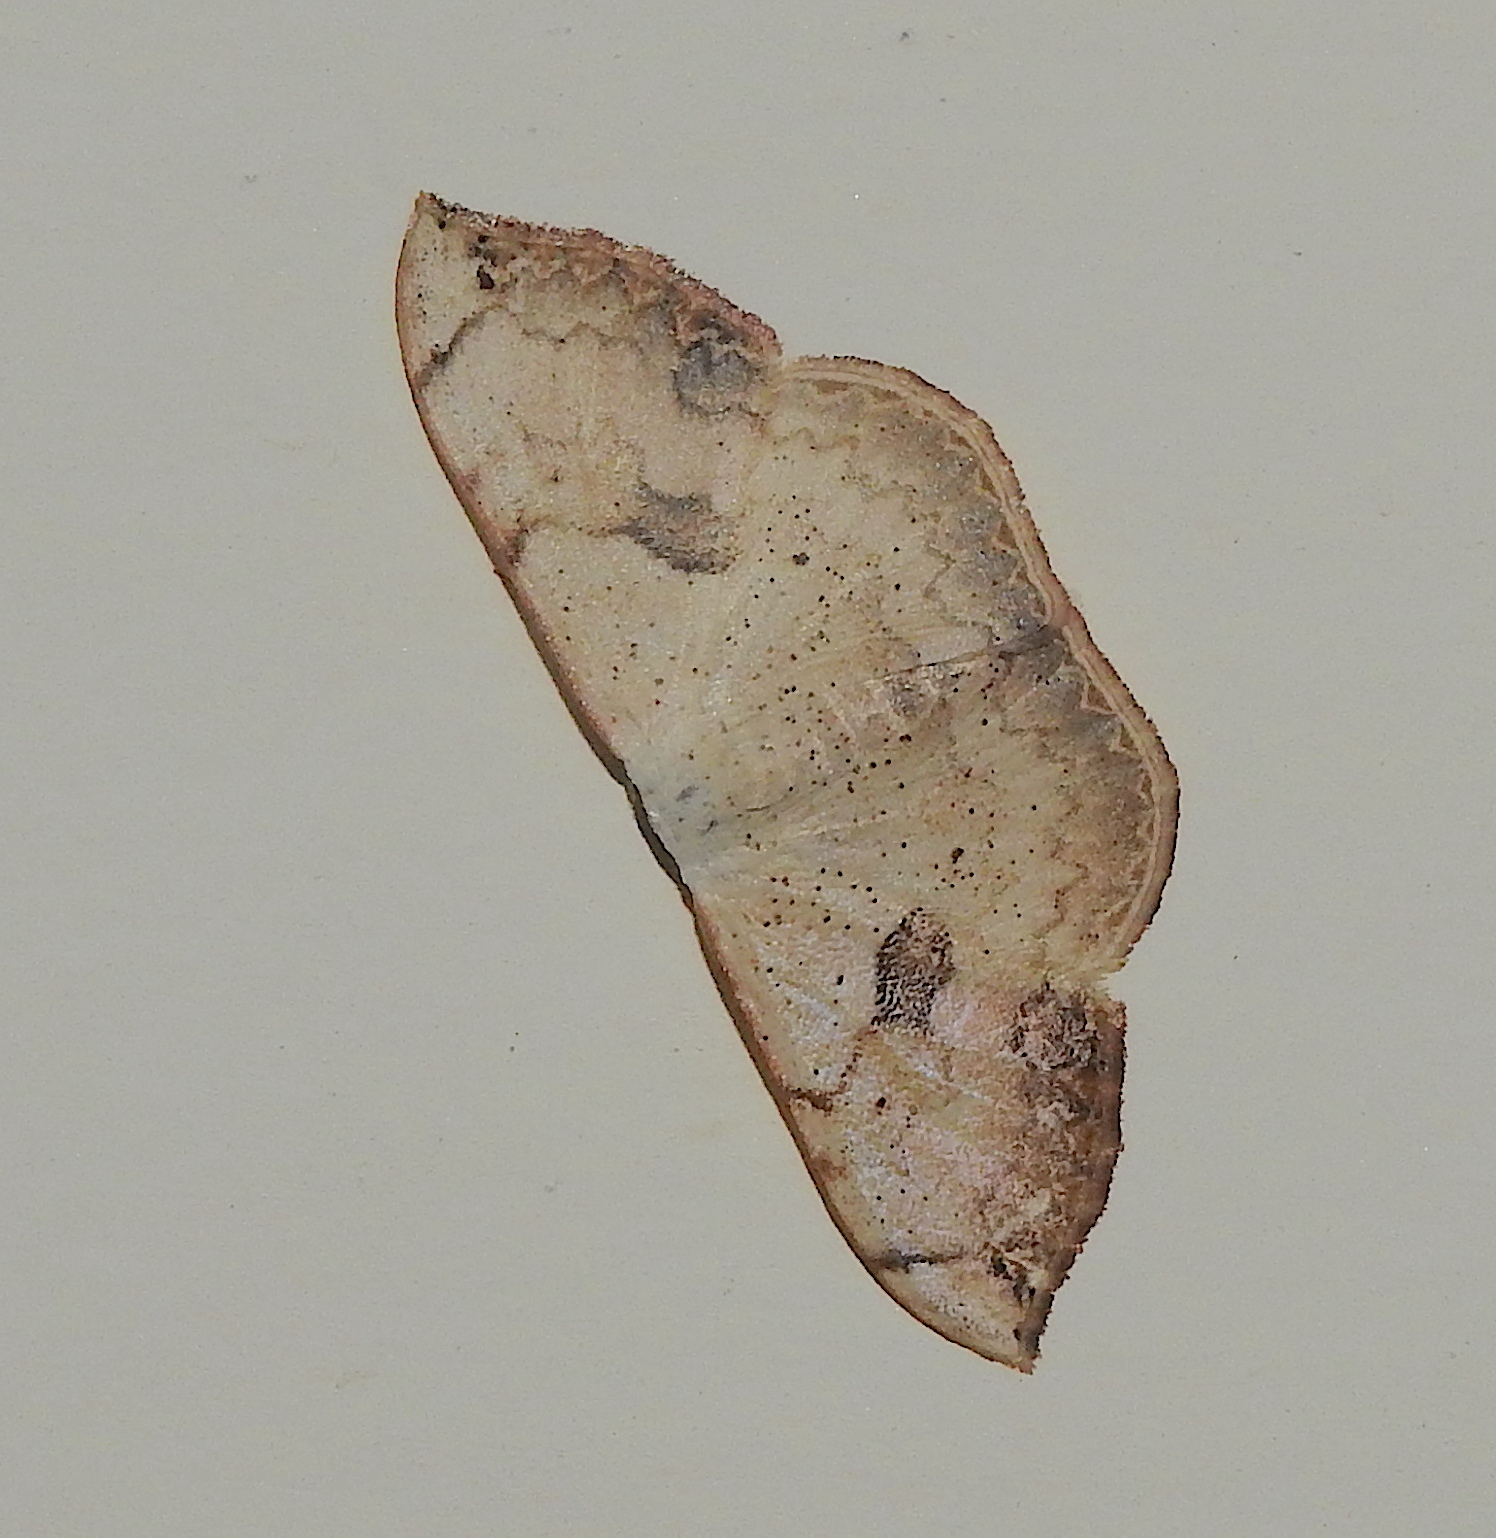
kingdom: Animalia
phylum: Arthropoda
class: Insecta
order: Lepidoptera
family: Geometridae
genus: Somatina
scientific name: Somatina anthophilata
